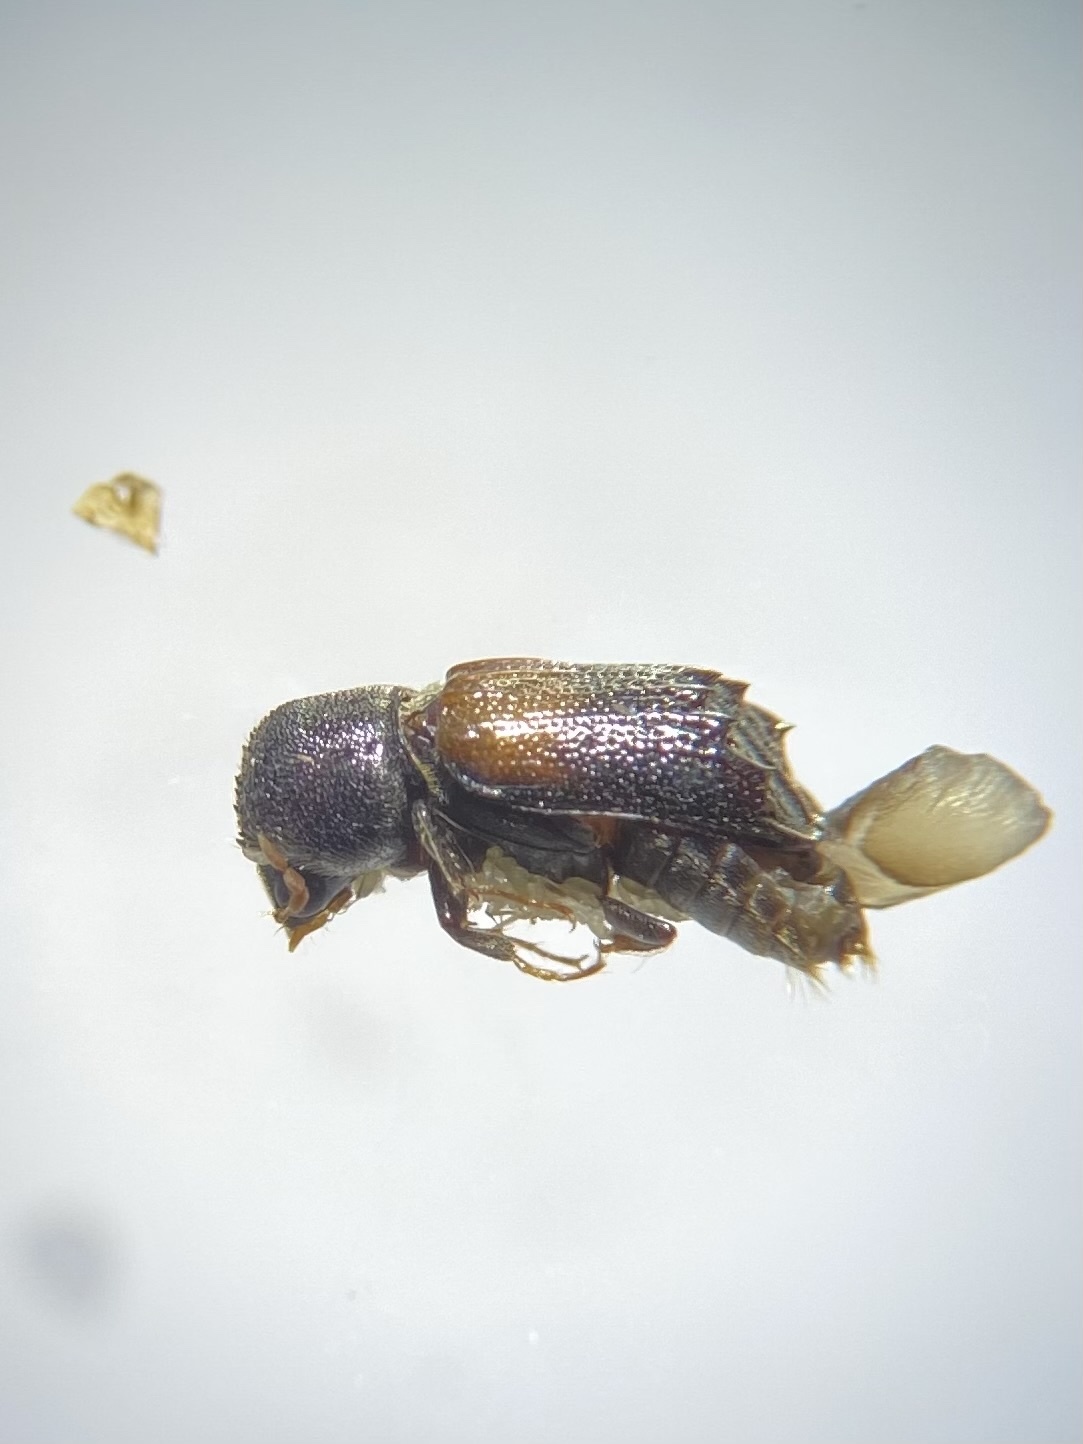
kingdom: Animalia
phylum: Arthropoda
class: Insecta
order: Coleoptera
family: Bostrichidae
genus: Xylobiops
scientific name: Xylobiops basilaris
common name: Red-shouldered bostrichid
